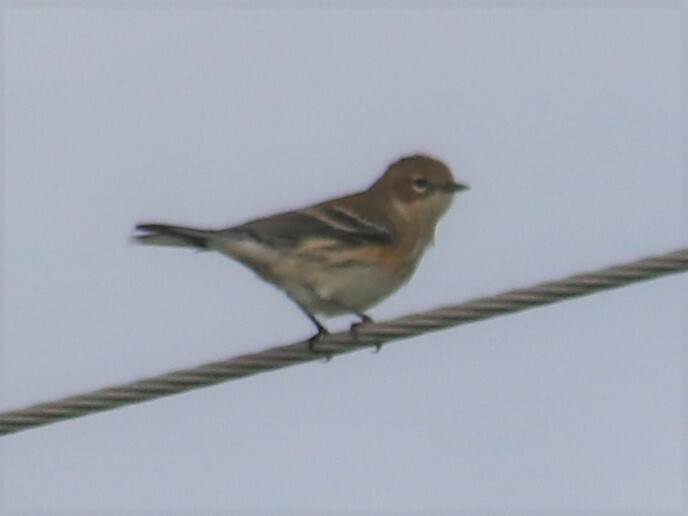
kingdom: Animalia
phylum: Chordata
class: Aves
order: Passeriformes
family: Parulidae
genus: Setophaga
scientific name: Setophaga coronata
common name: Myrtle warbler
